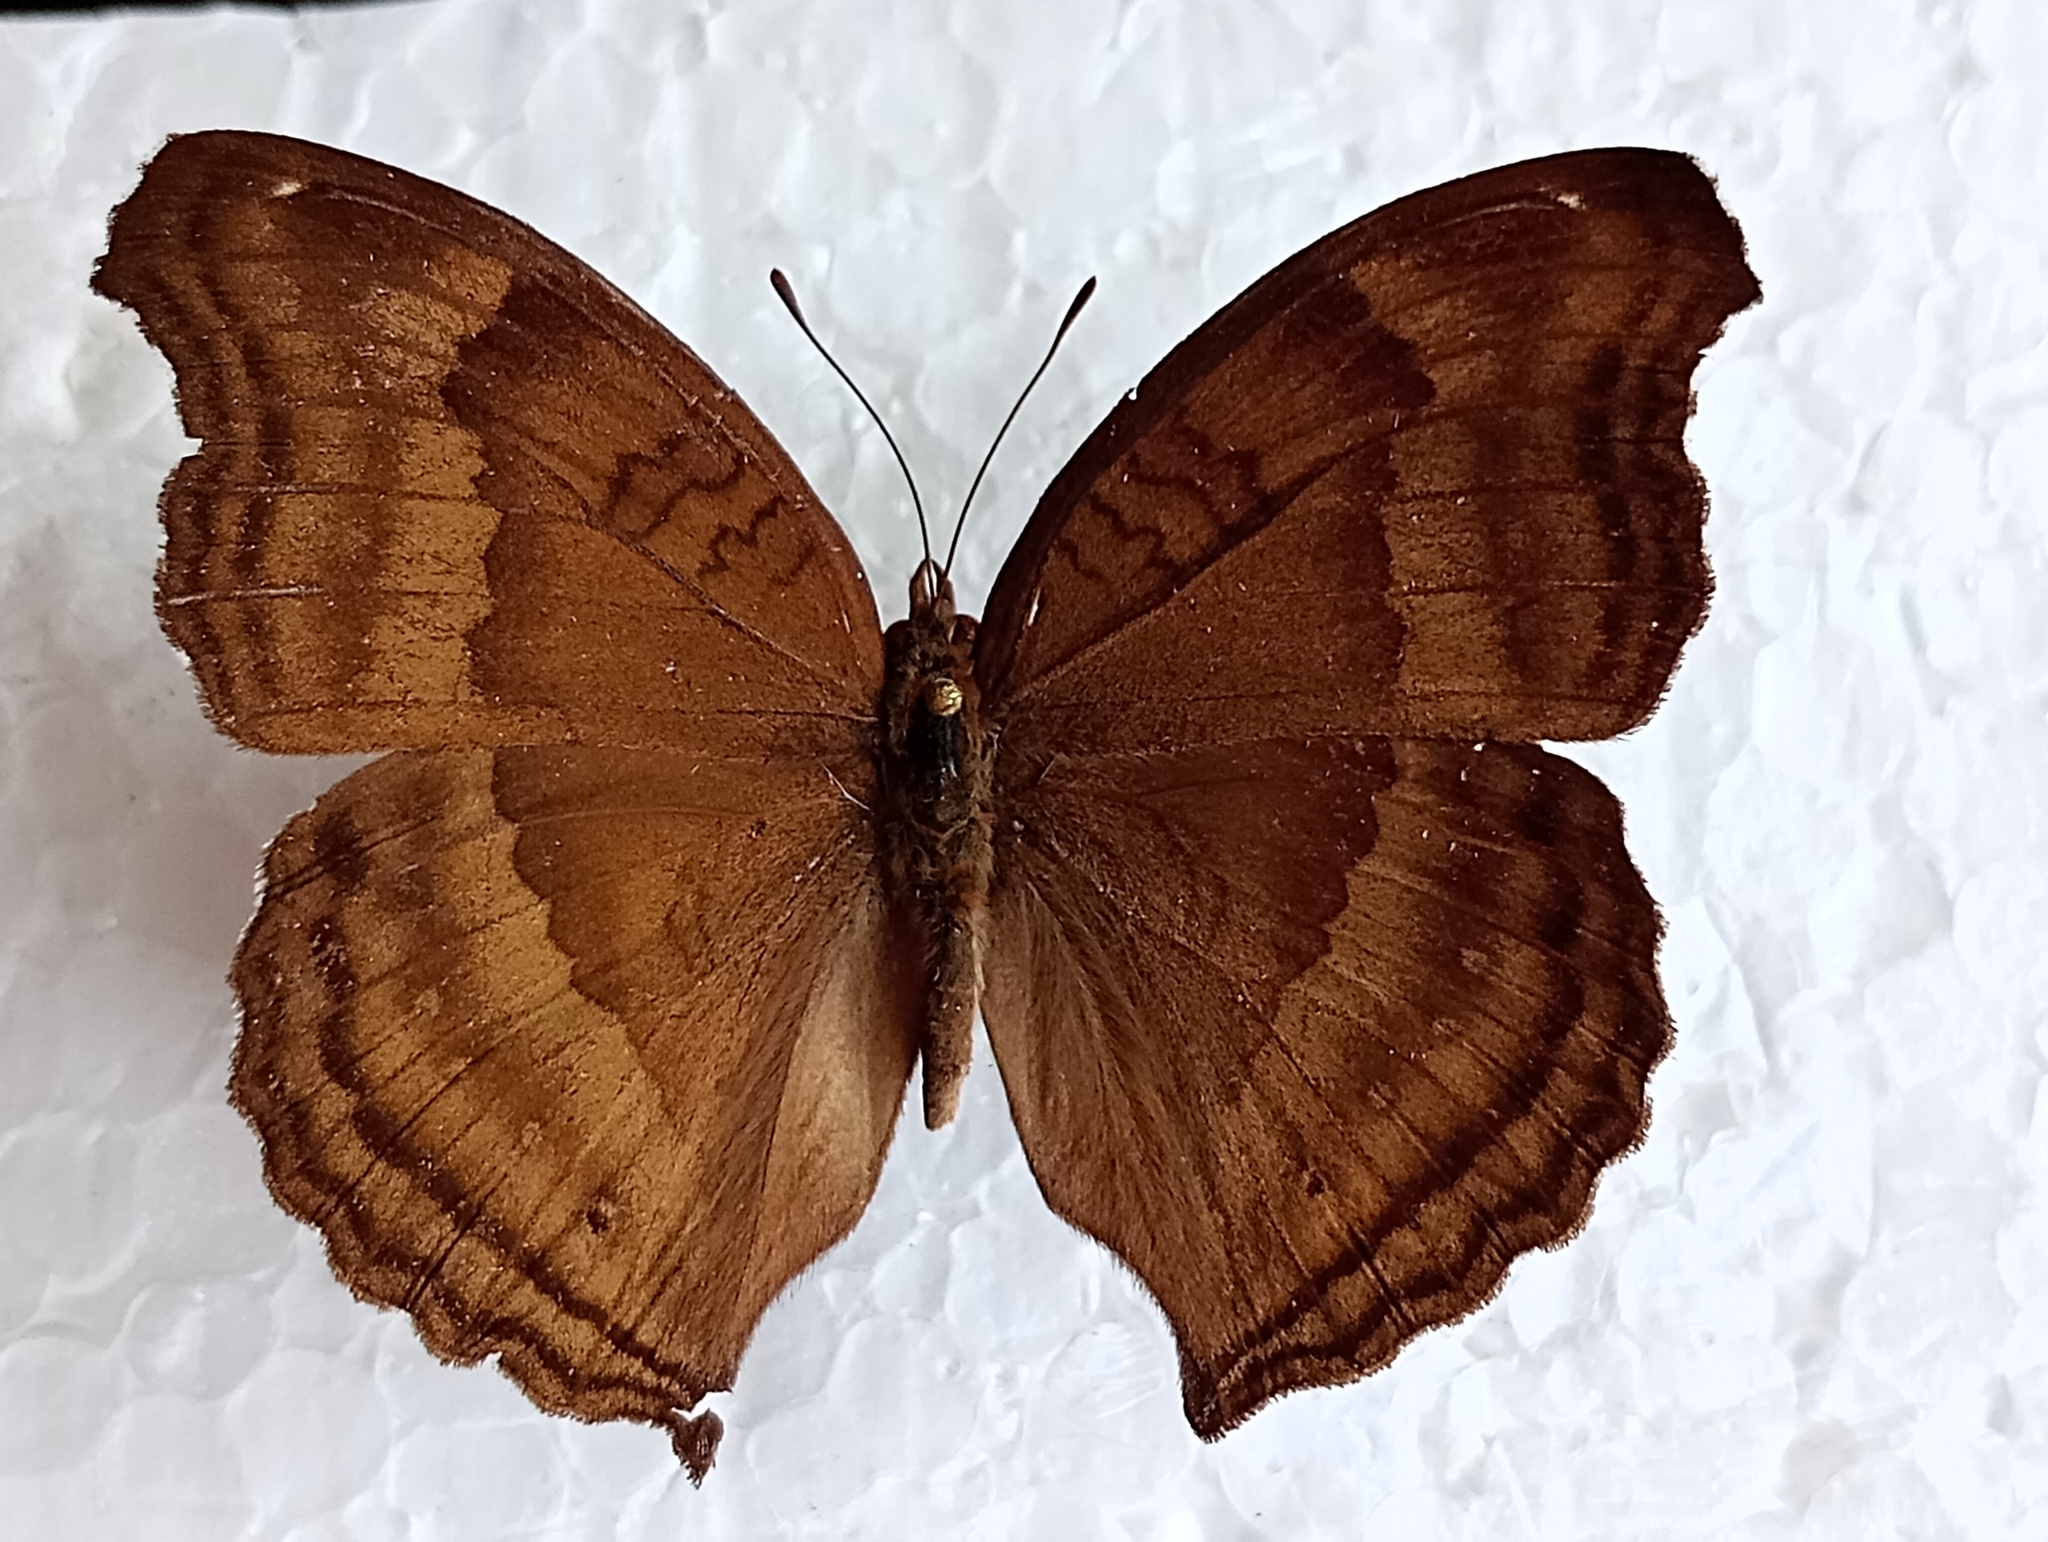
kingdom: Animalia
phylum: Arthropoda
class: Insecta
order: Lepidoptera
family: Nymphalidae
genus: Junonia
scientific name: Junonia iphita
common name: Chocolate pansy
